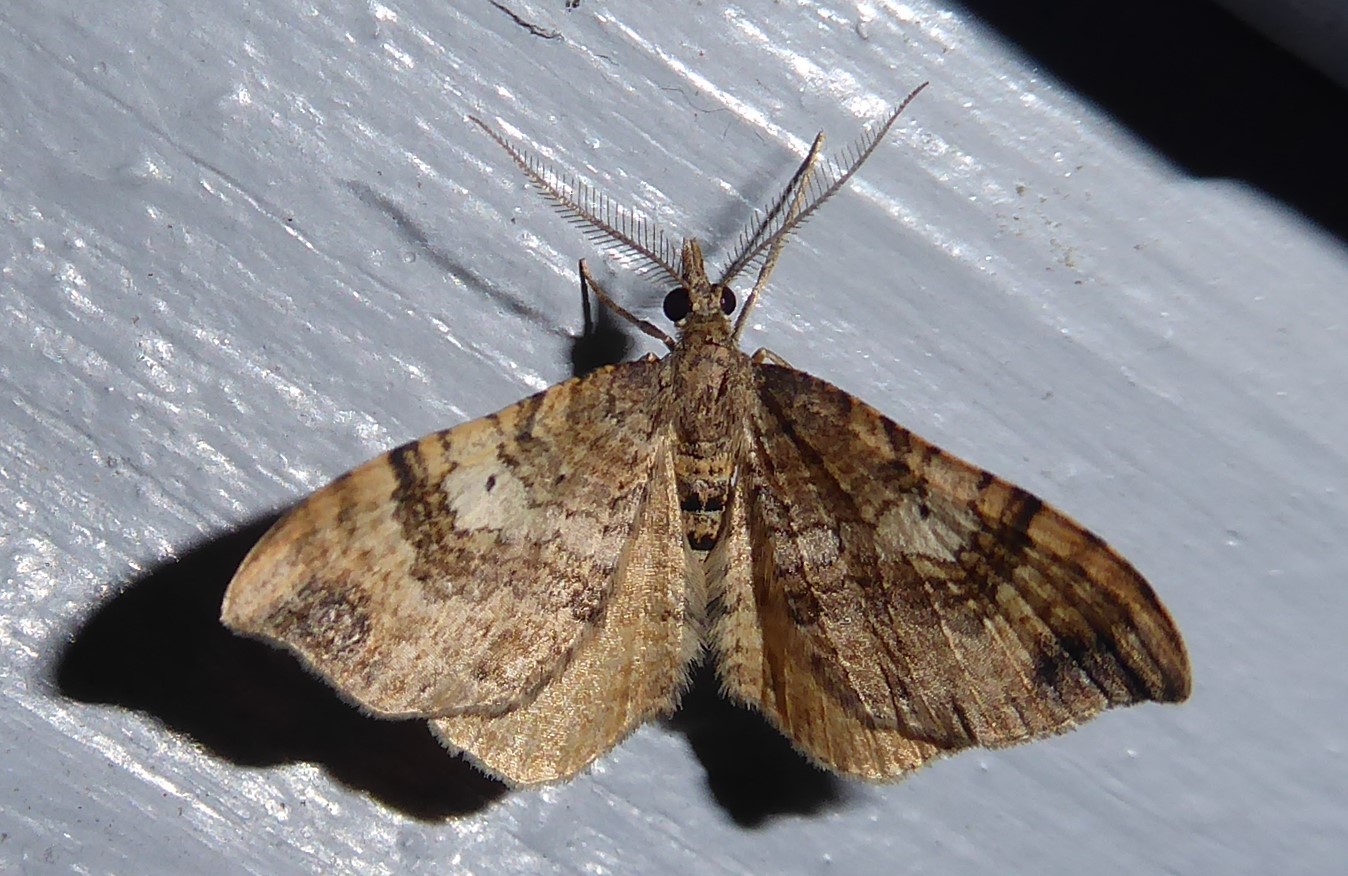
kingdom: Animalia
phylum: Arthropoda
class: Insecta
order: Lepidoptera
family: Geometridae
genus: Homodotis
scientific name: Homodotis falcata
